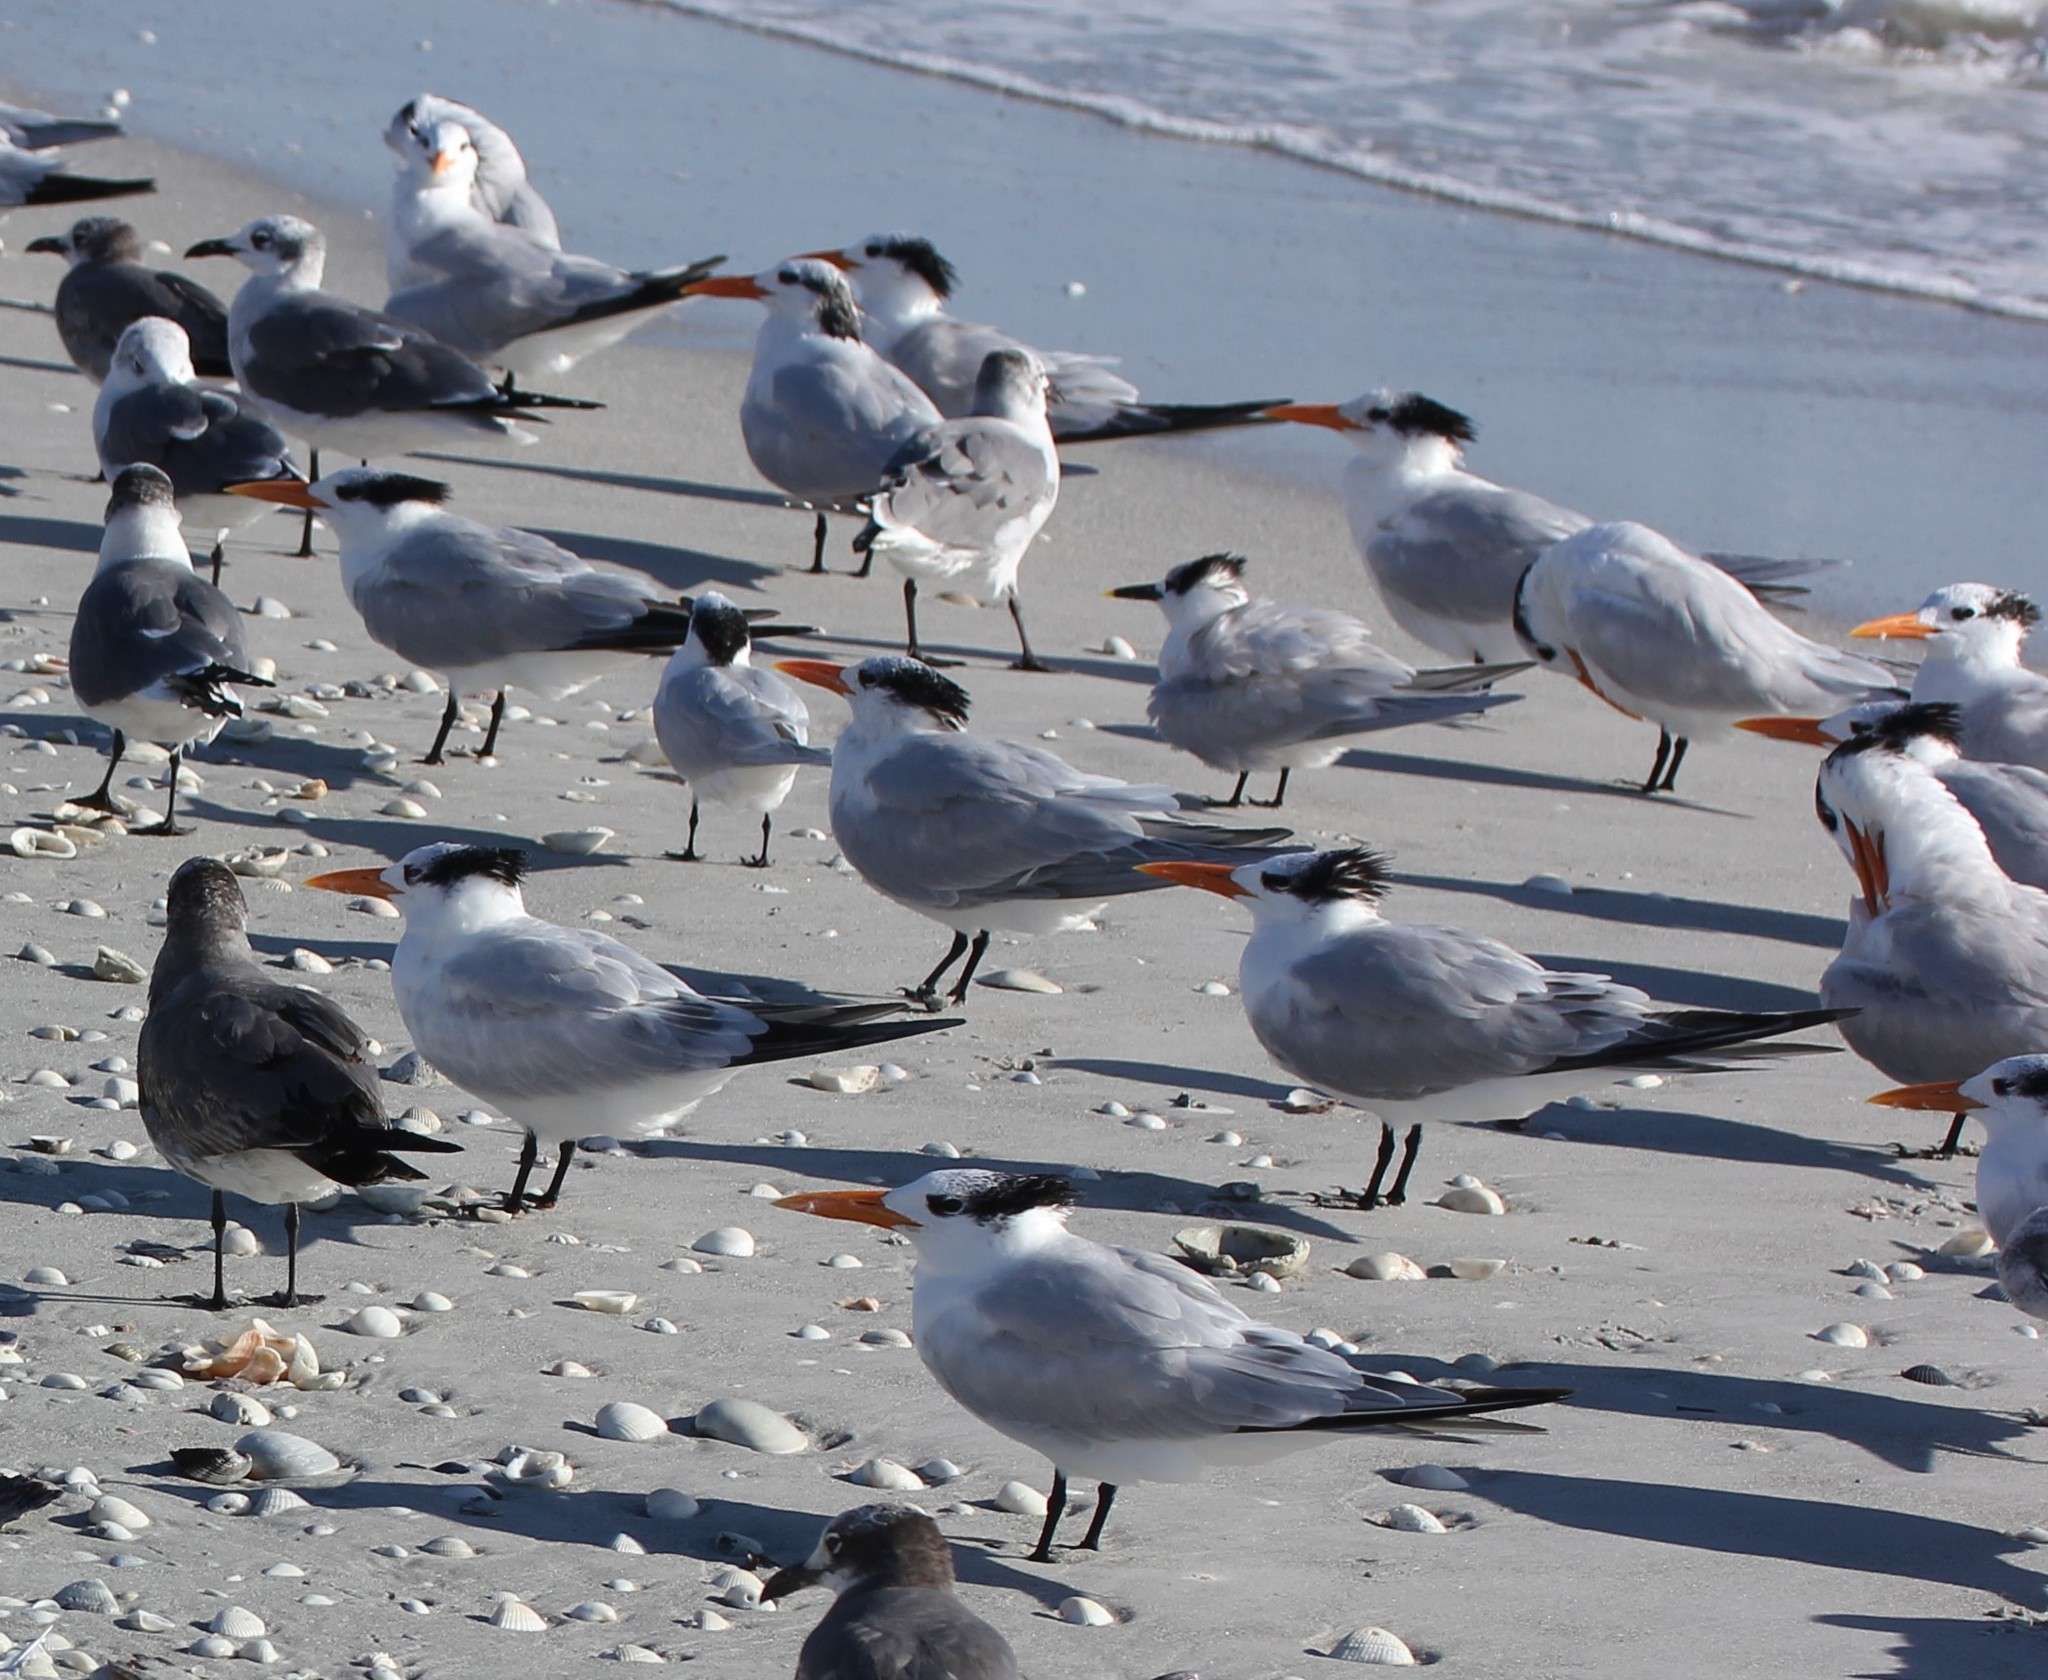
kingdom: Animalia
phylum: Chordata
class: Aves
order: Charadriiformes
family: Laridae
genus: Thalasseus
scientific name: Thalasseus maximus
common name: Royal tern
